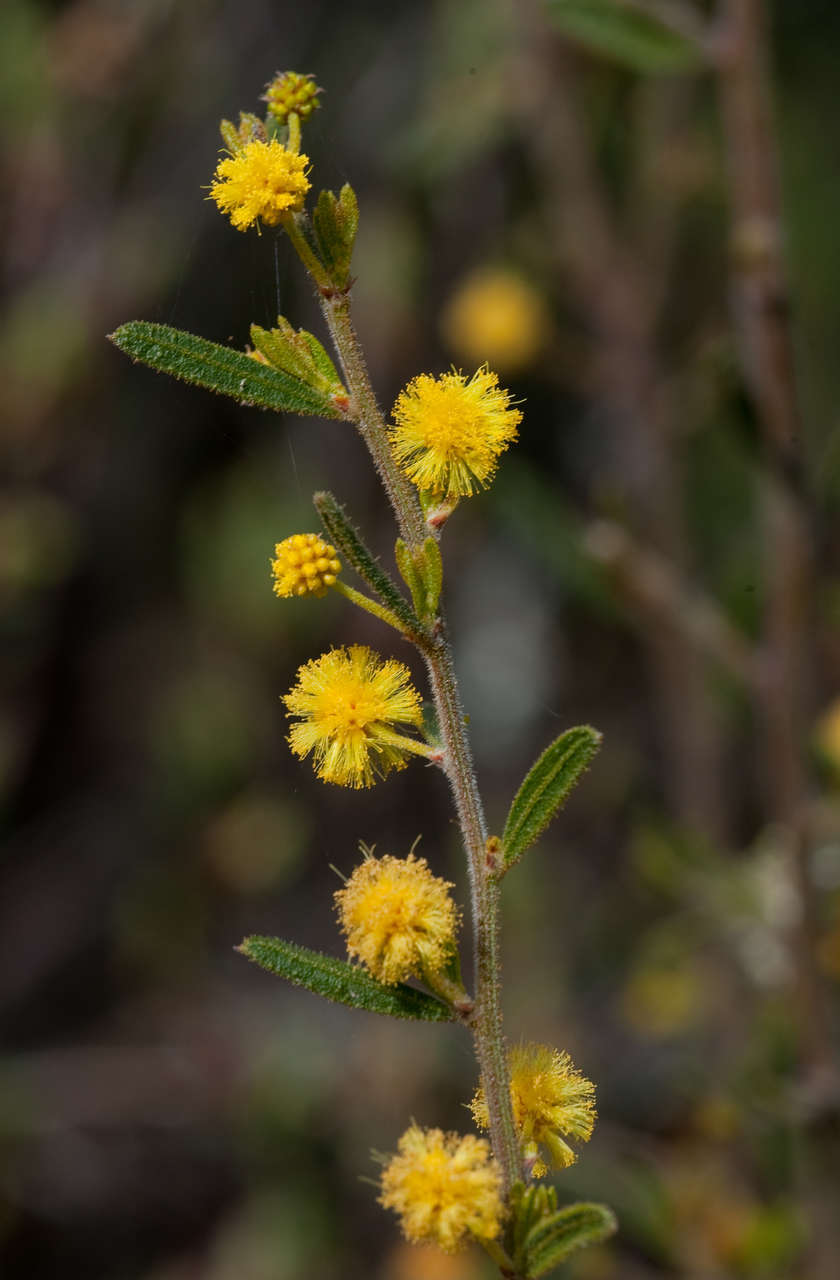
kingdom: Plantae
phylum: Tracheophyta
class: Magnoliopsida
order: Fabales
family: Fabaceae
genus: Acacia
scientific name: Acacia aspera
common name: Rough wattle
